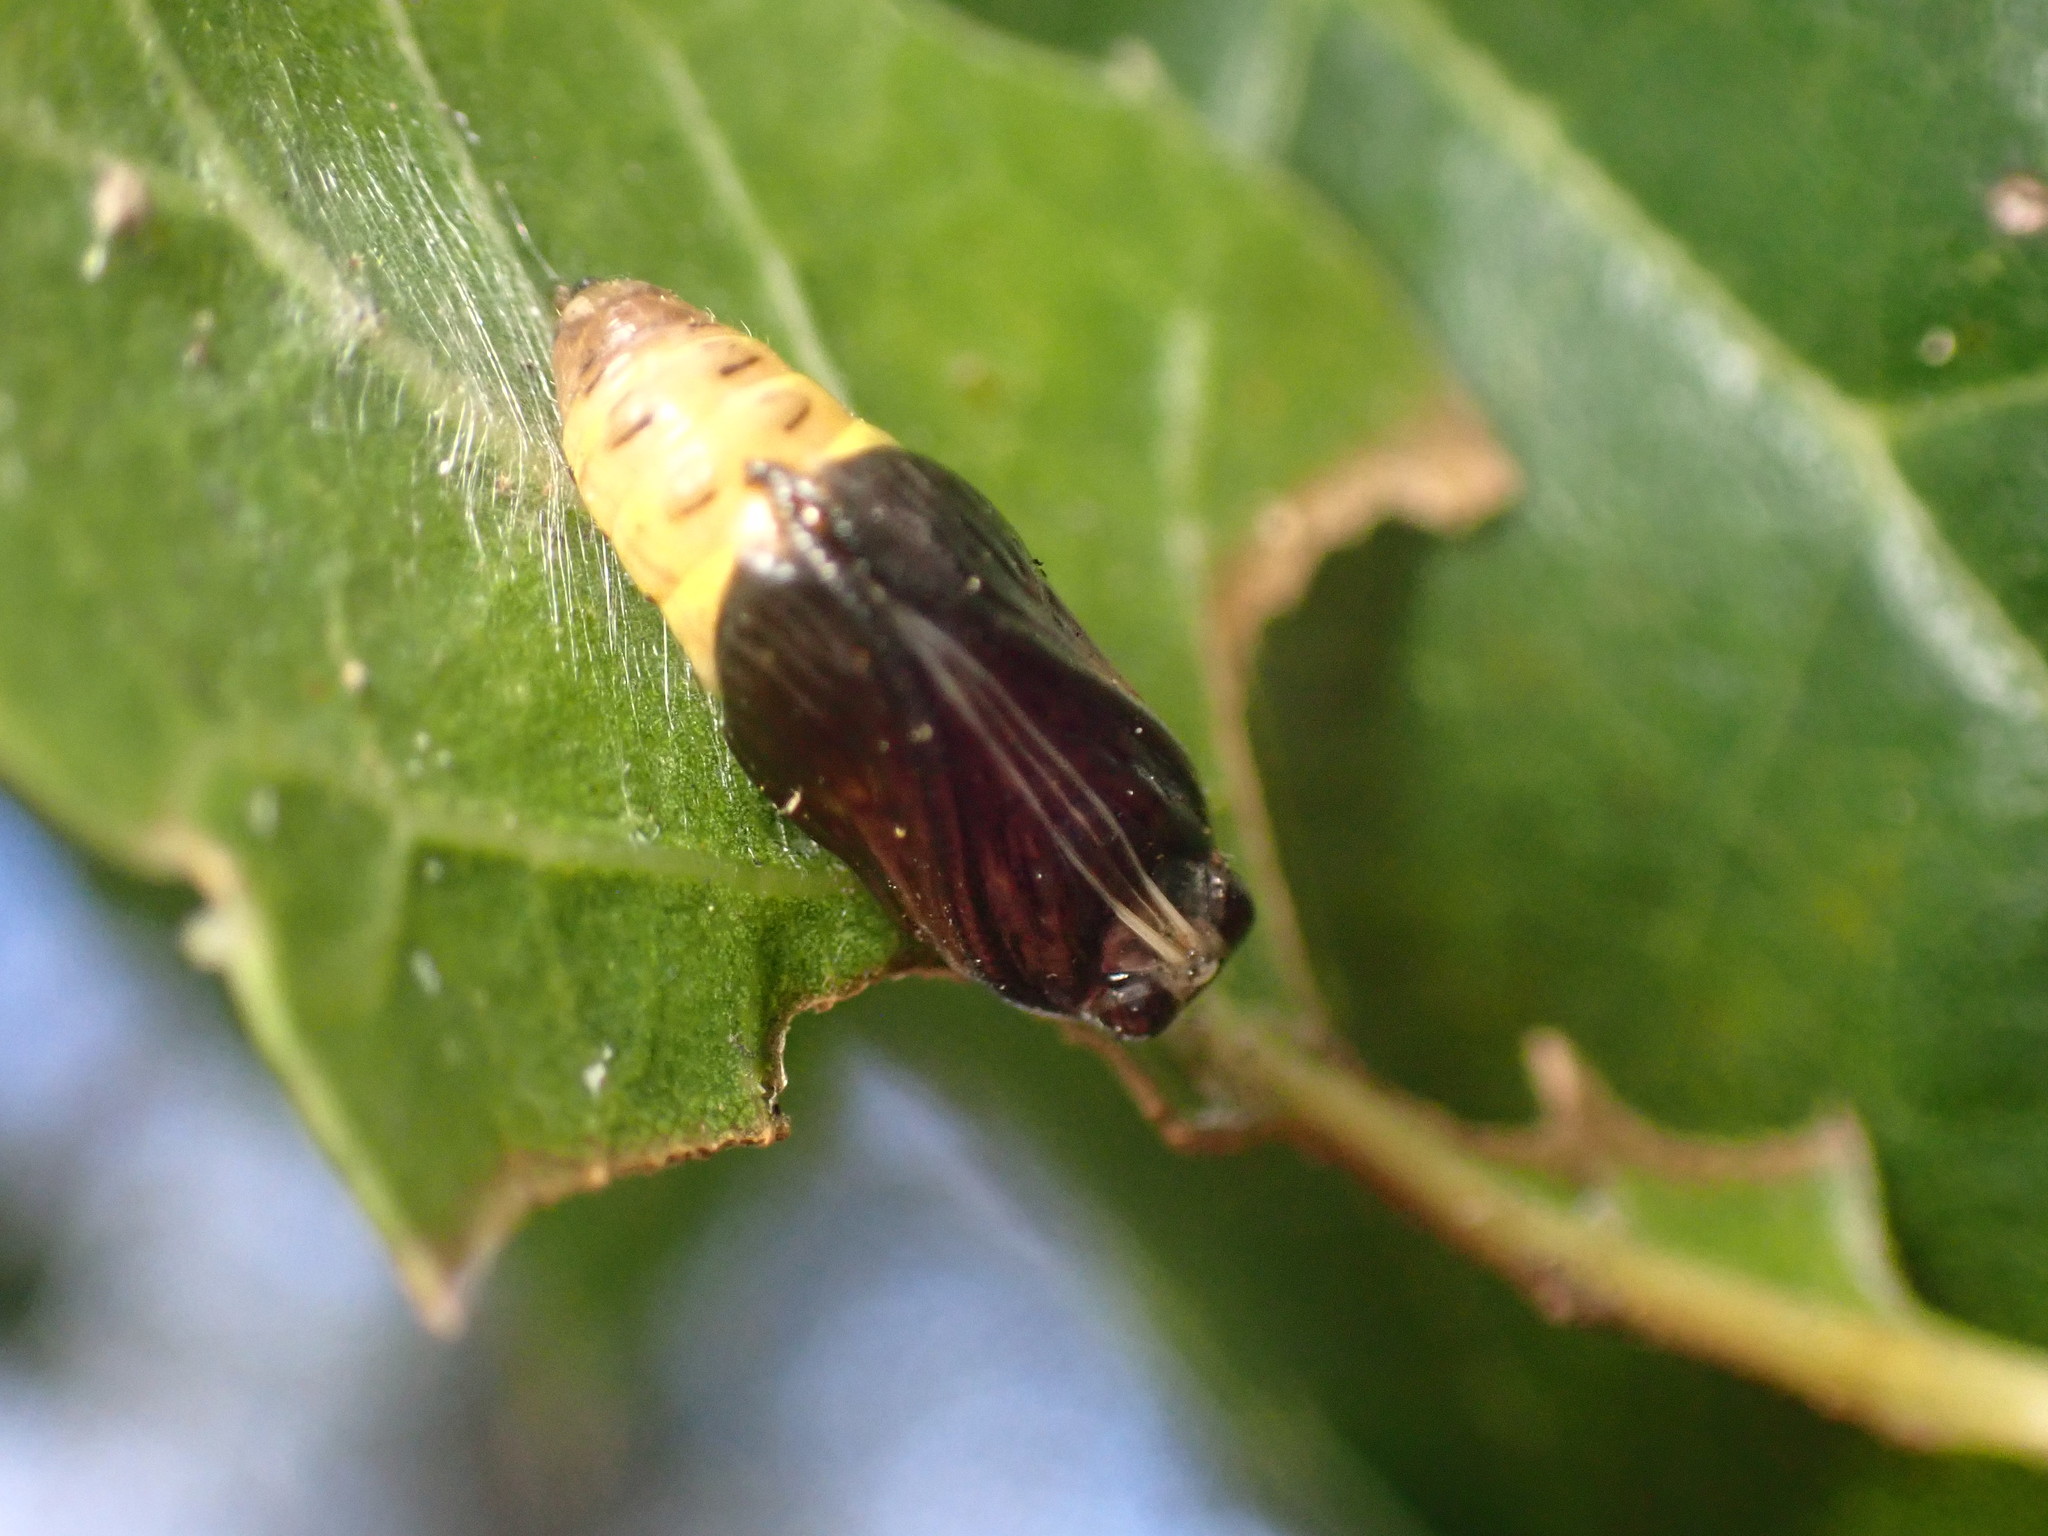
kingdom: Animalia
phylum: Arthropoda
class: Insecta
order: Lepidoptera
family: Notodontidae
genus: Phryganidia
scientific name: Phryganidia californica
